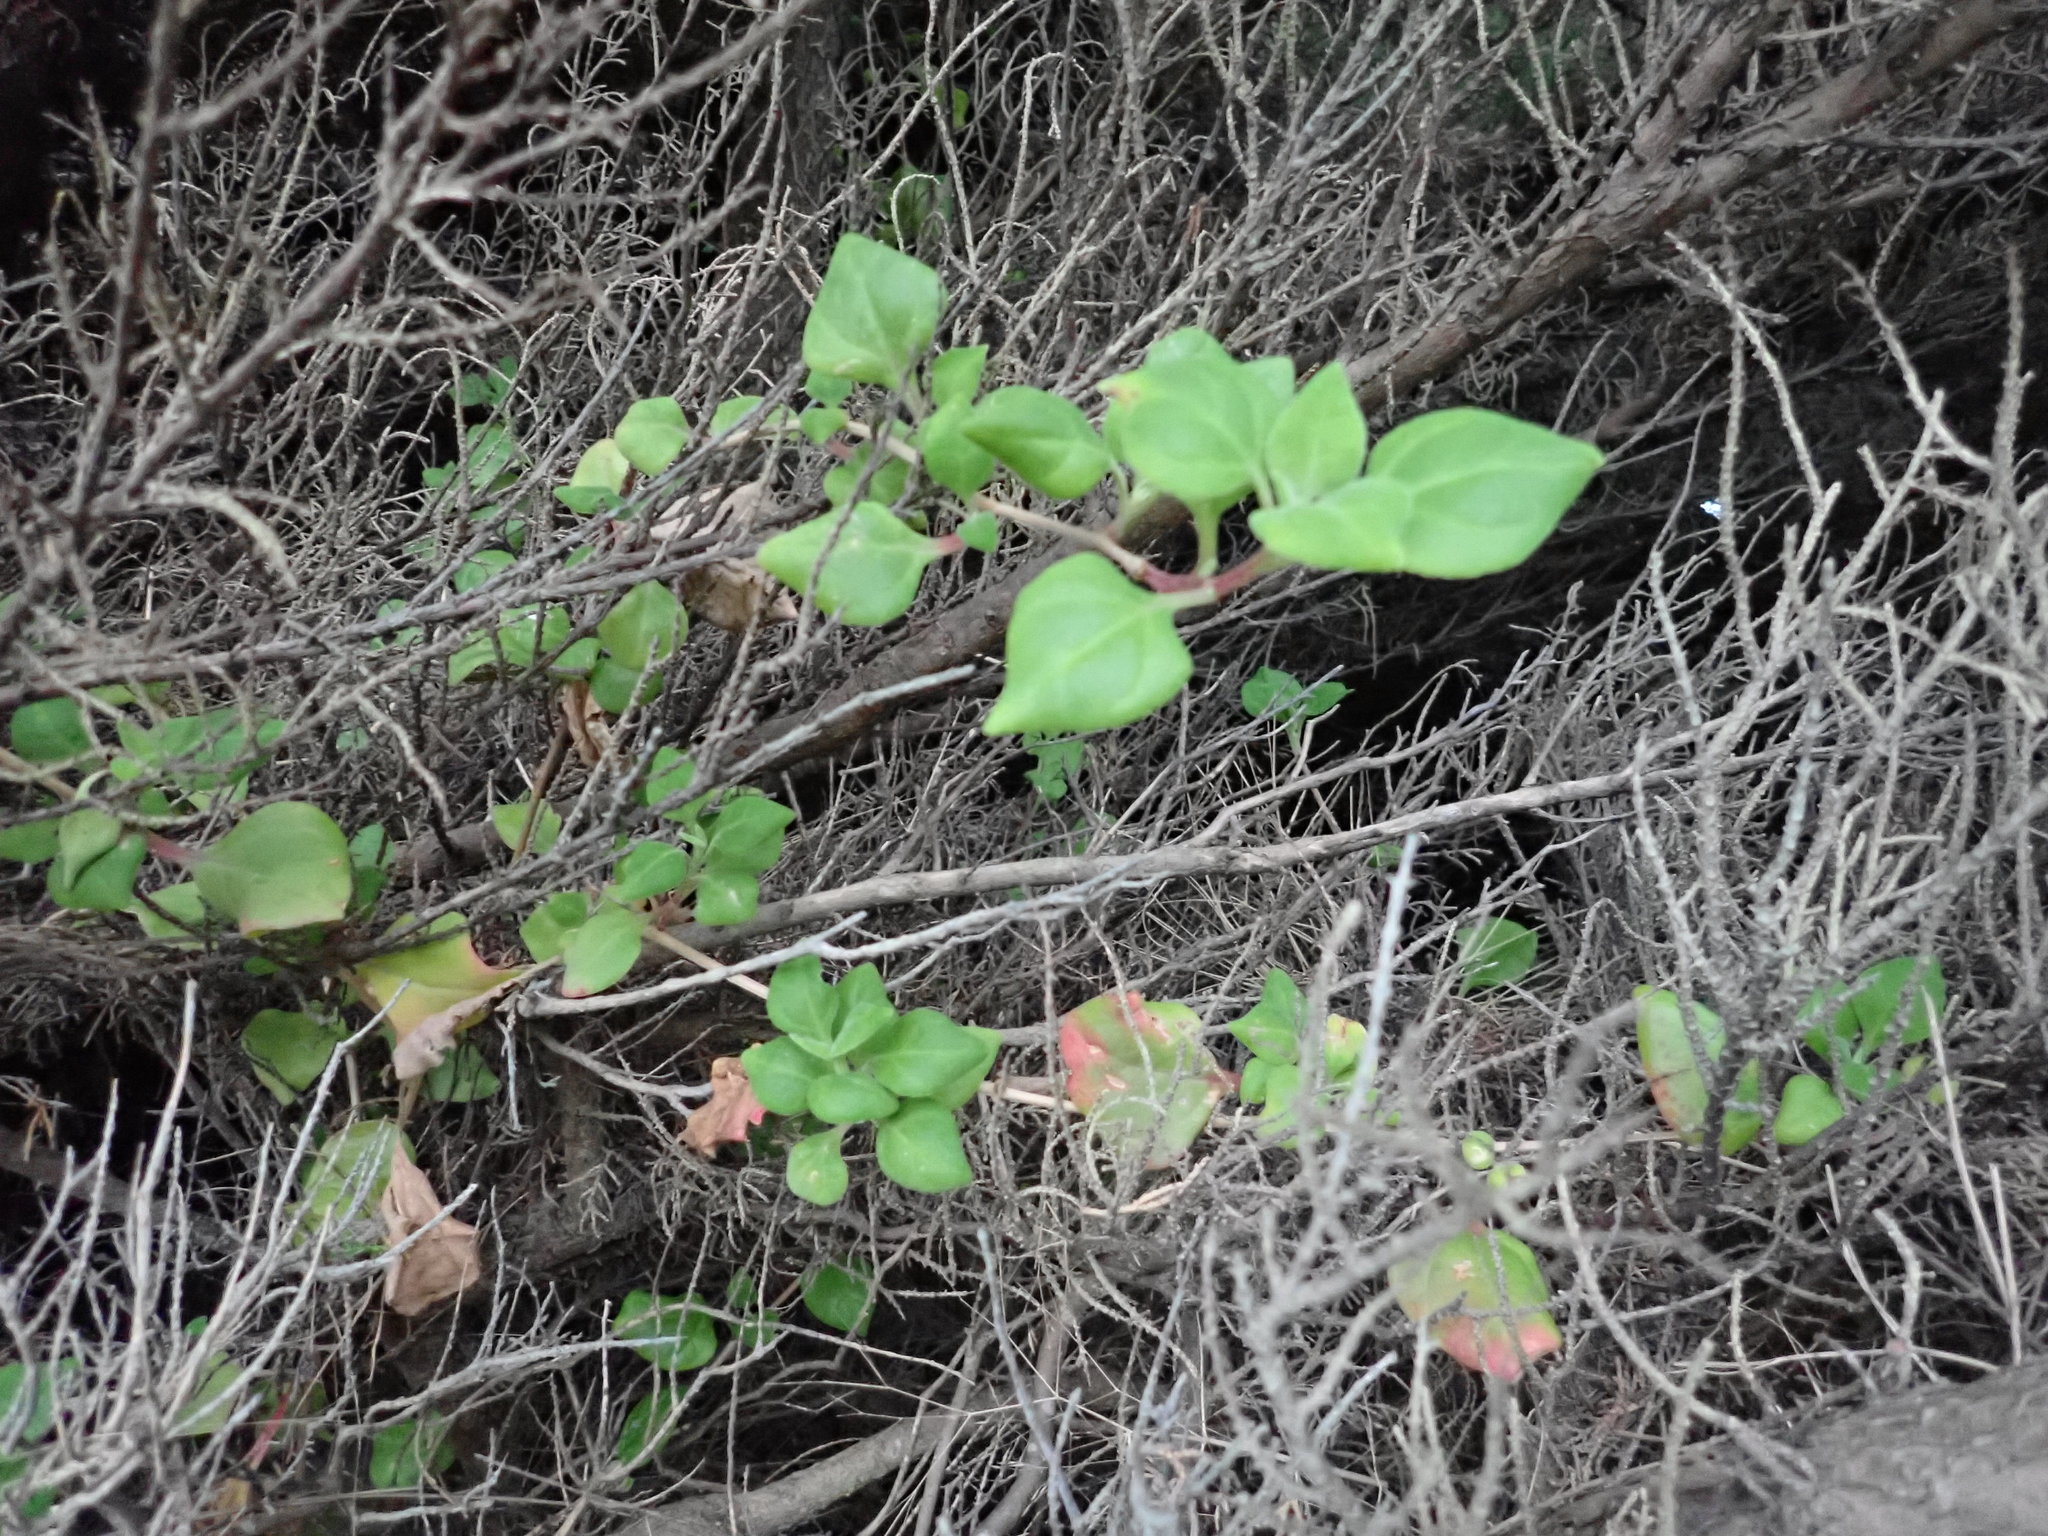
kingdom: Plantae
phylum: Tracheophyta
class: Magnoliopsida
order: Caryophyllales
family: Aizoaceae
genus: Tetragonia
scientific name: Tetragonia implexicoma
